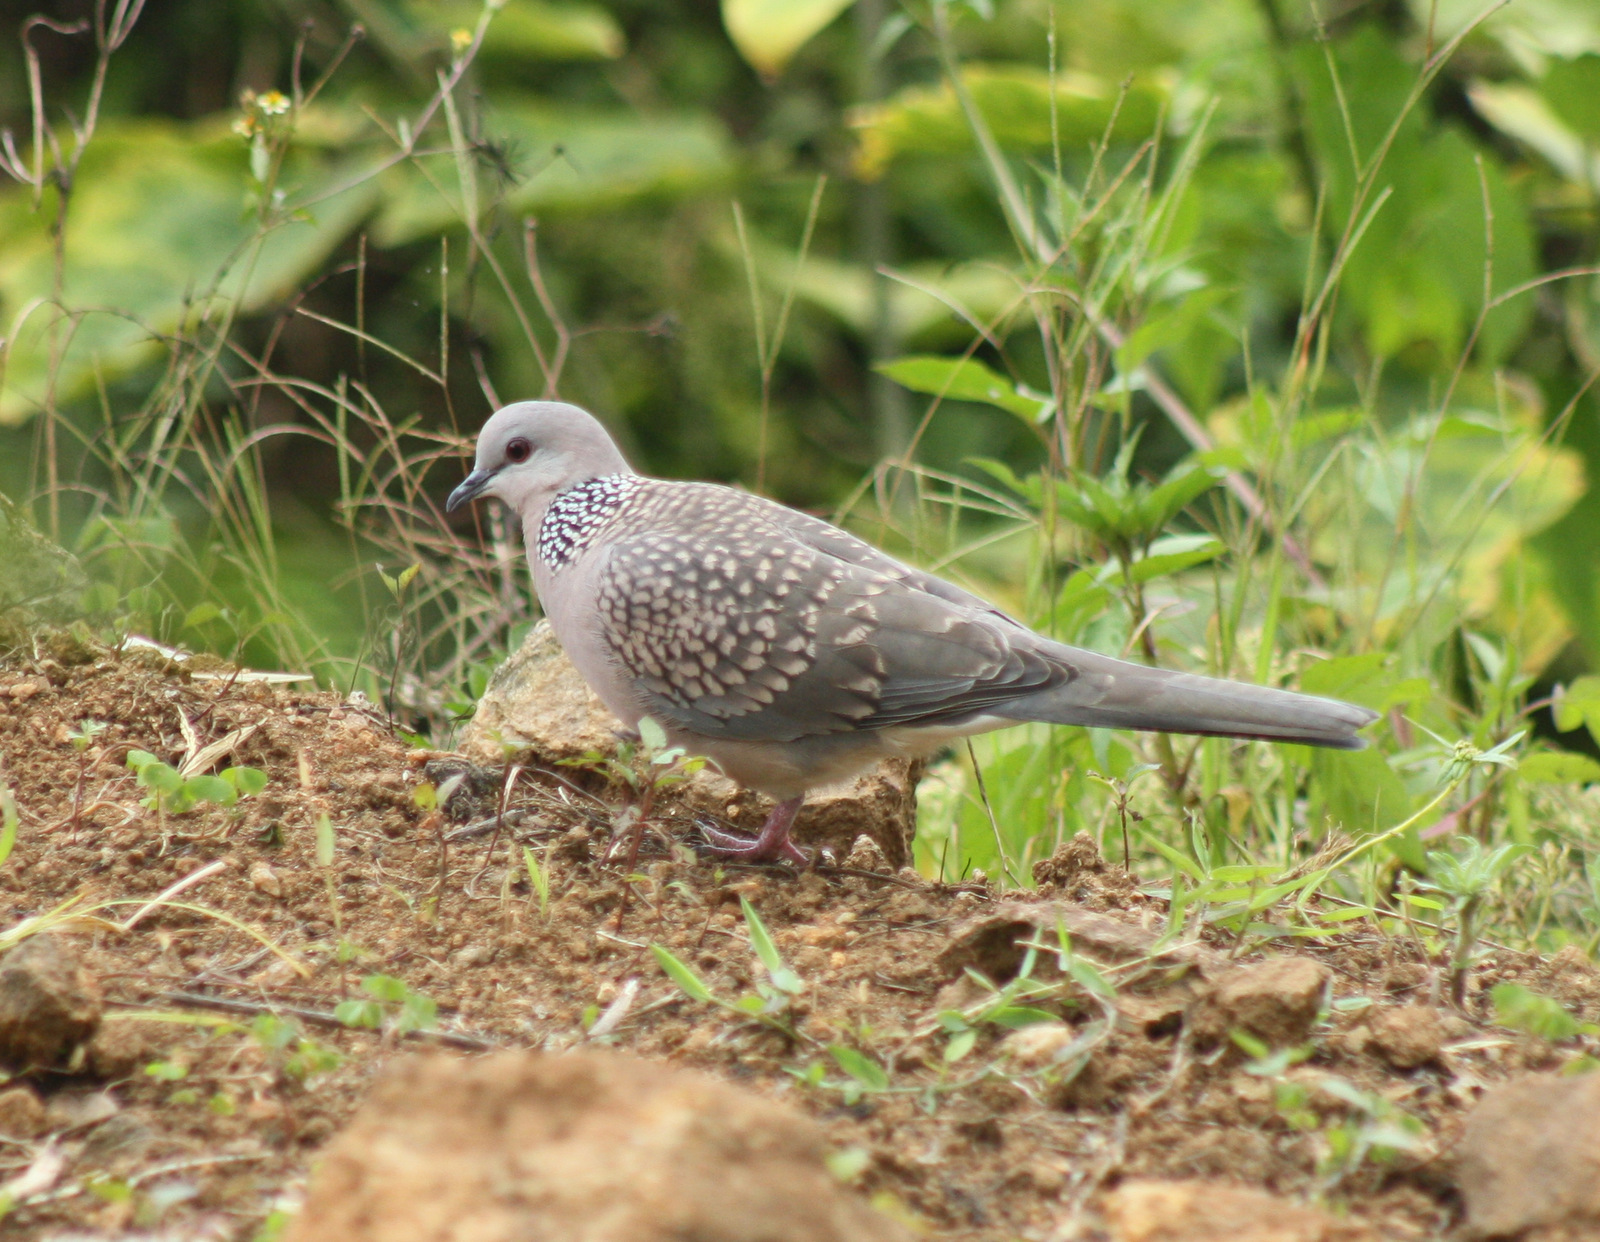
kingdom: Animalia
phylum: Chordata
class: Aves
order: Columbiformes
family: Columbidae
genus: Spilopelia
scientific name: Spilopelia chinensis
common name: Spotted dove
